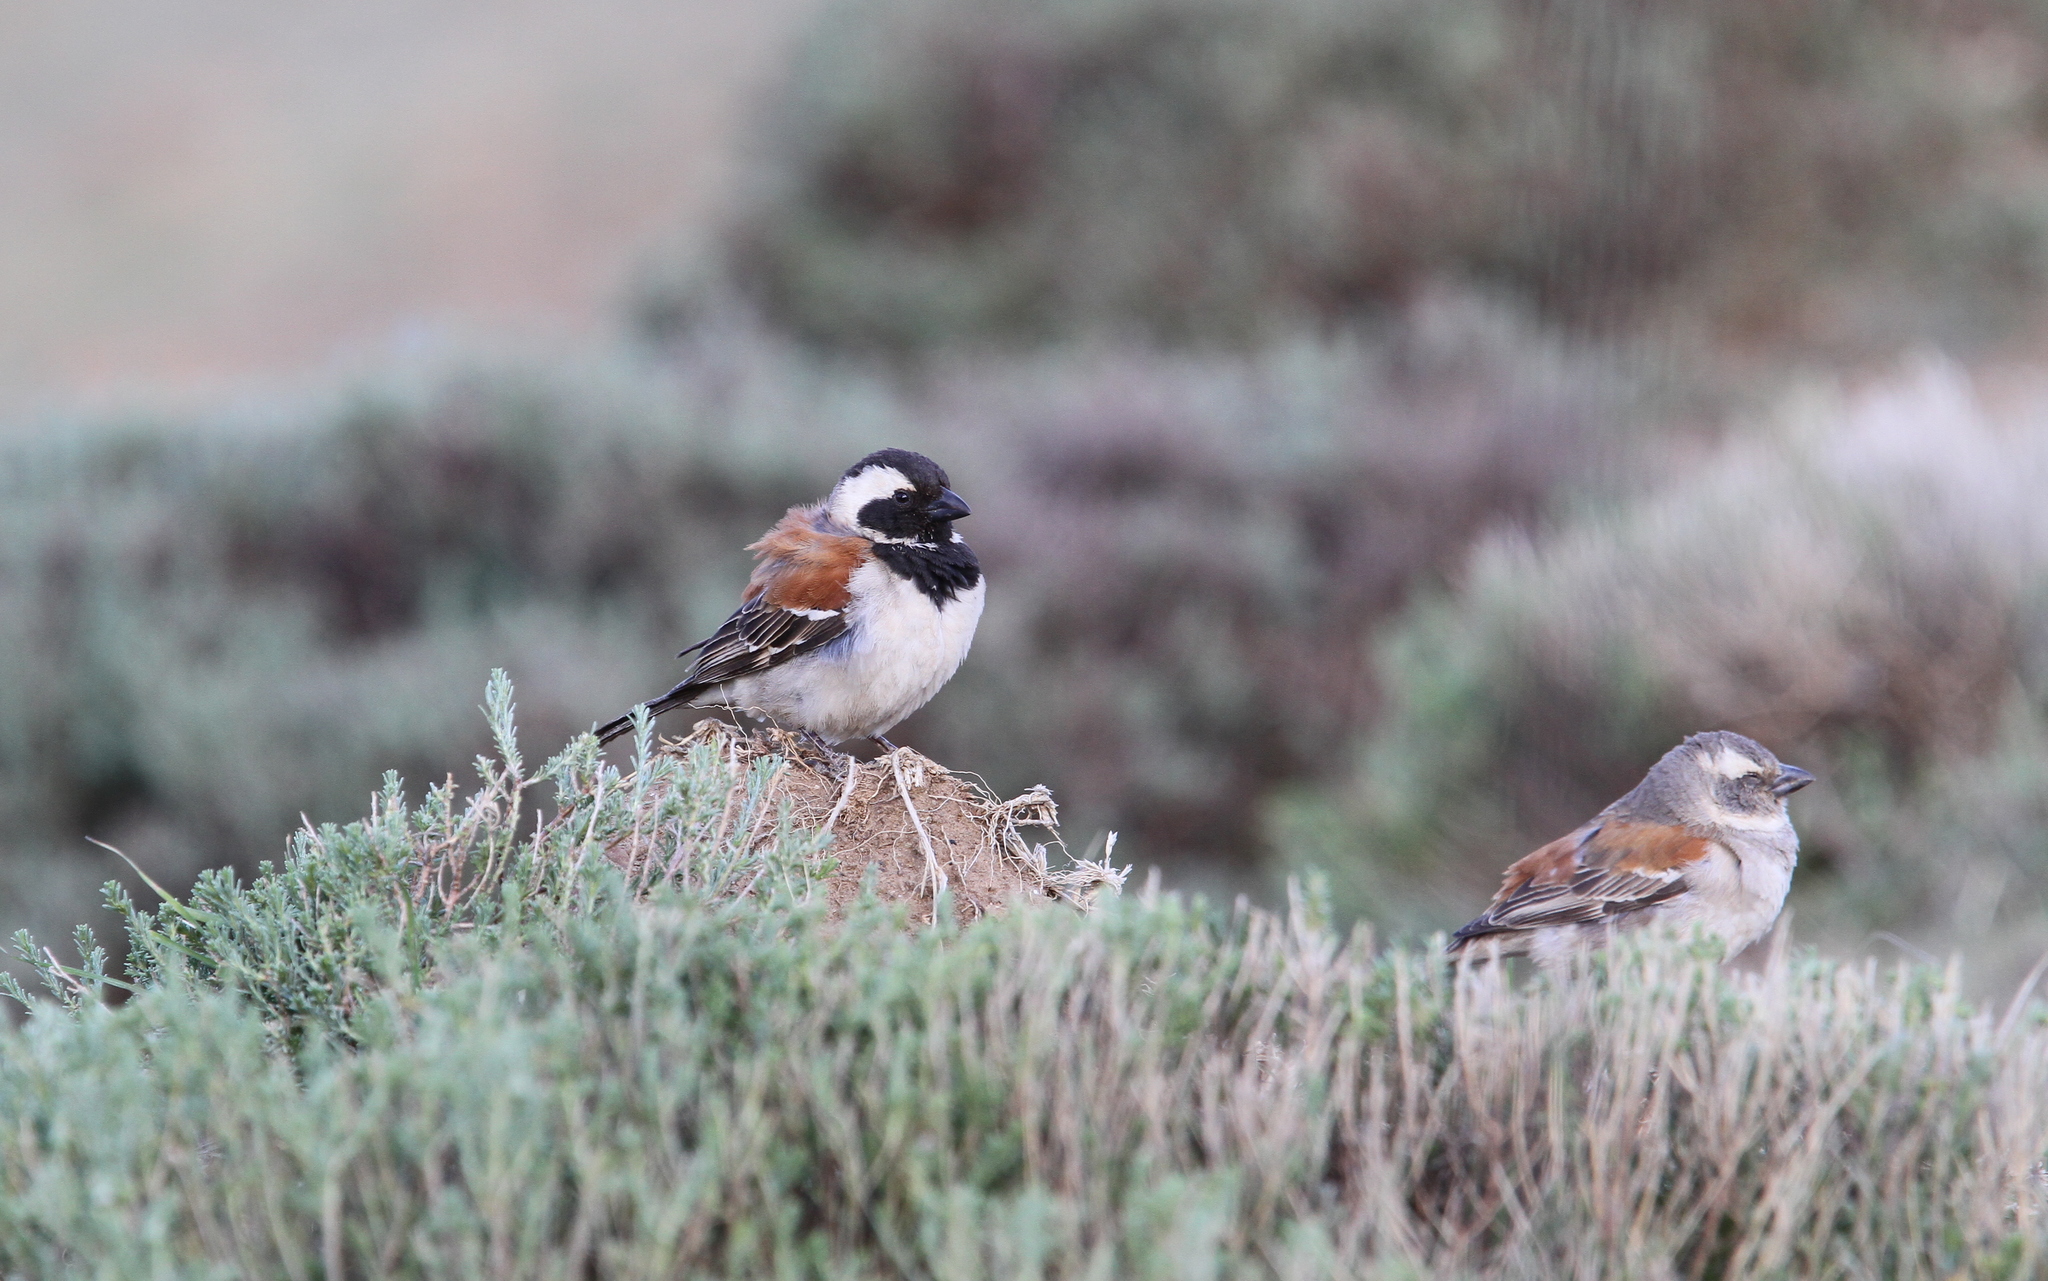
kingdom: Animalia
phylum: Chordata
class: Aves
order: Passeriformes
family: Passeridae
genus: Passer
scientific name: Passer melanurus
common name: Cape sparrow
